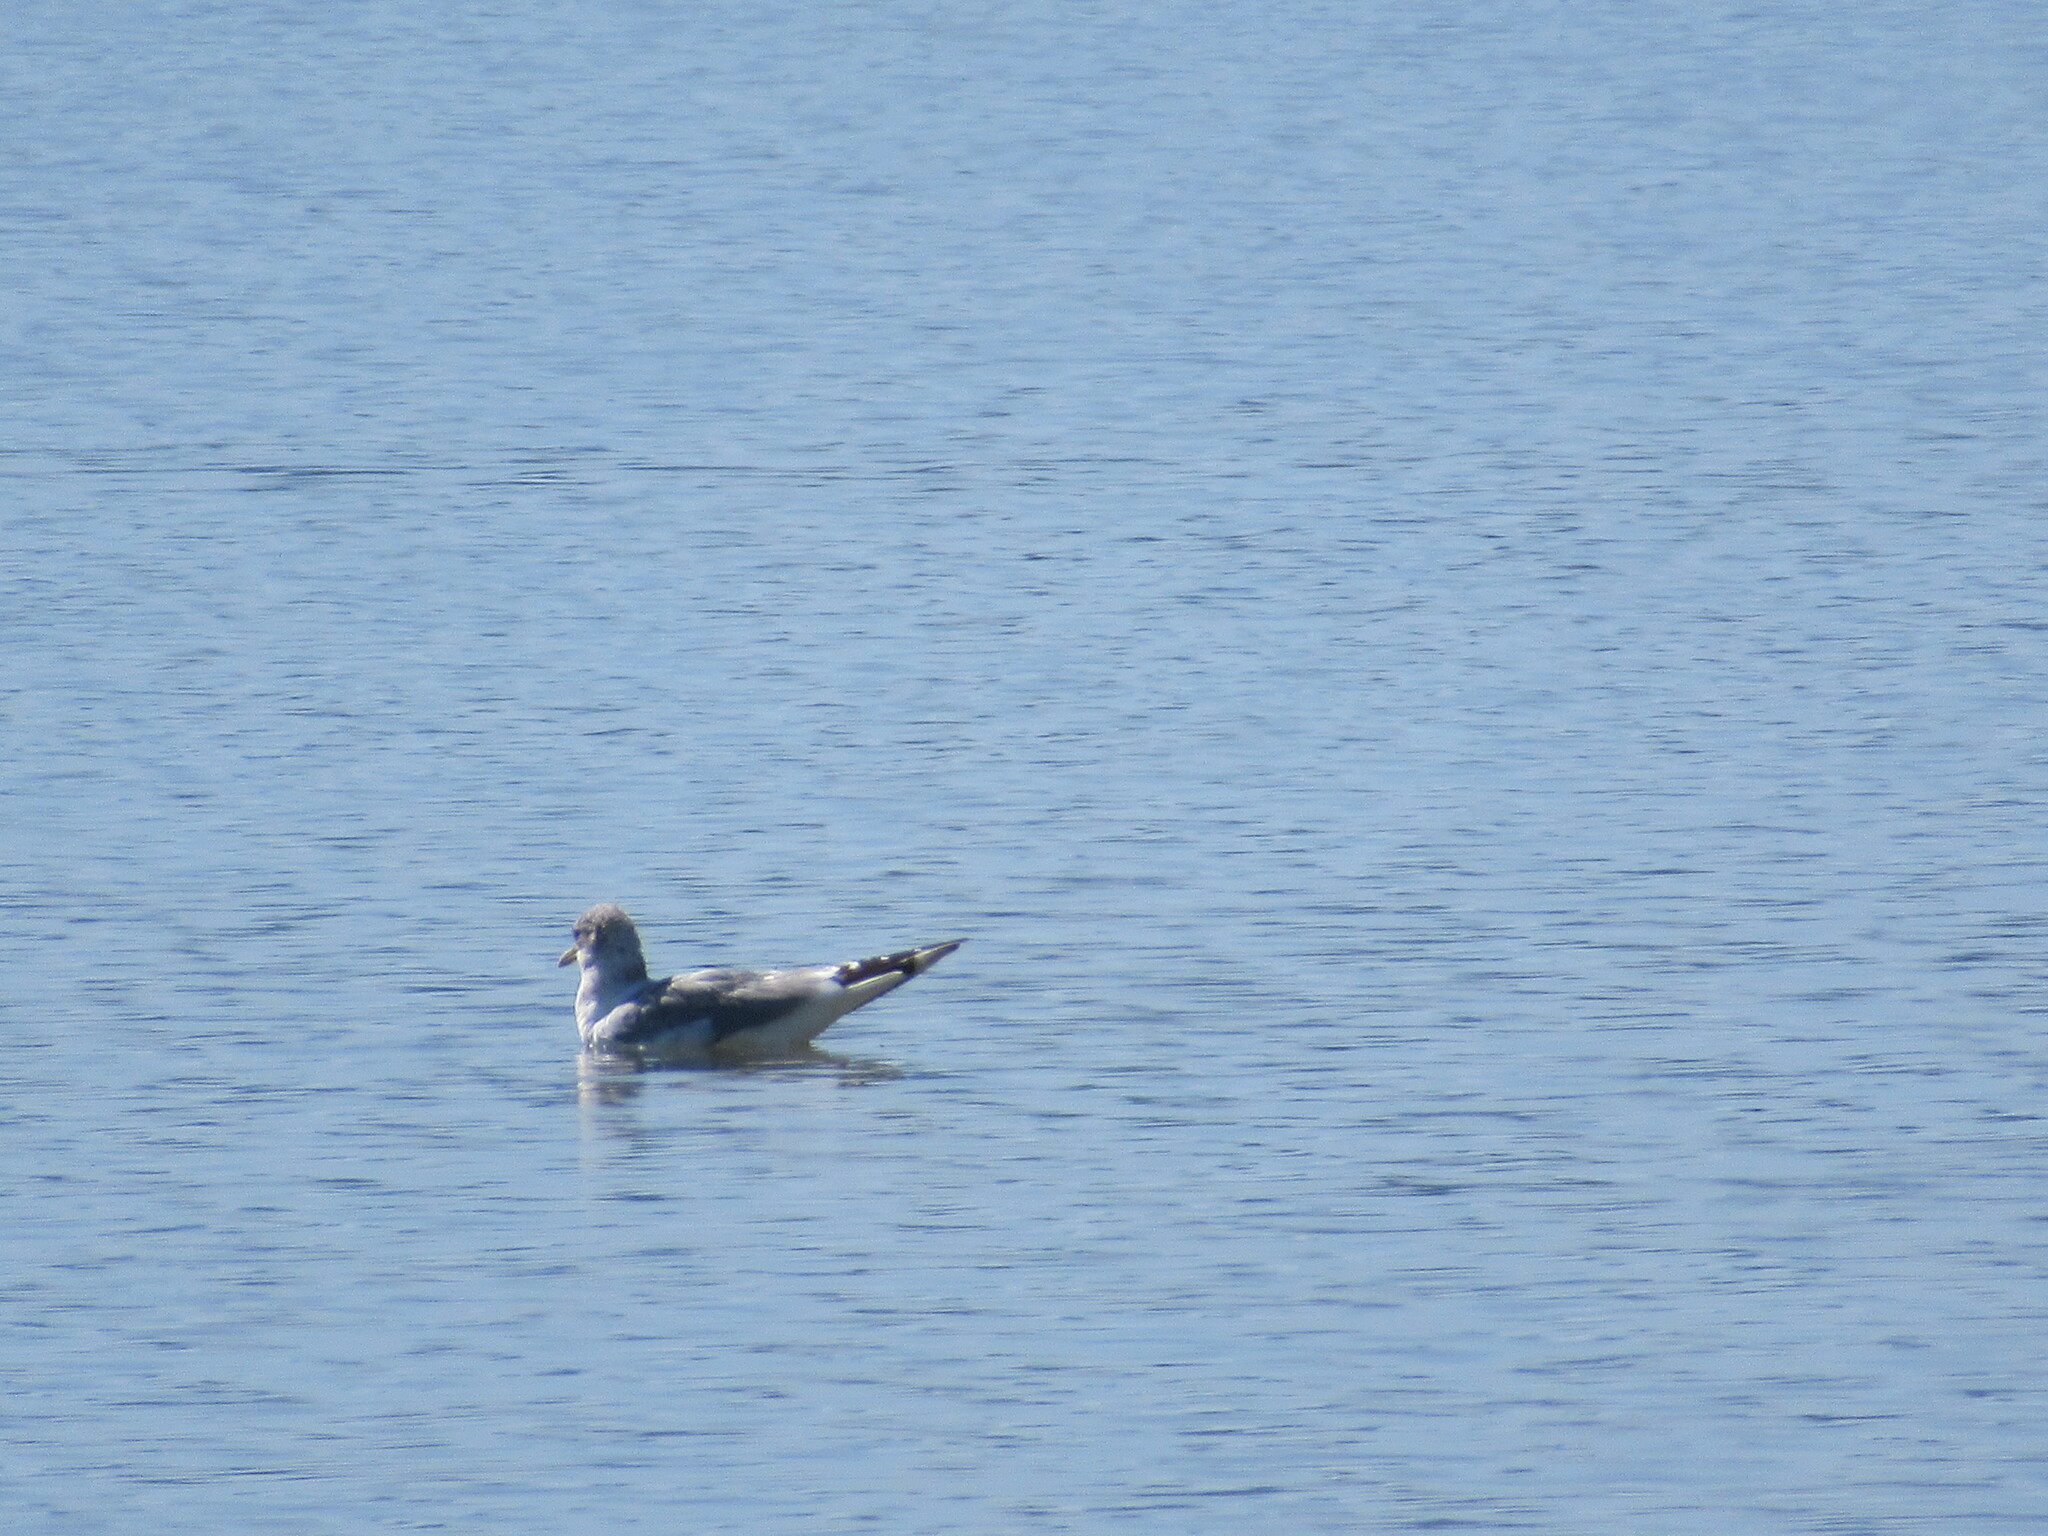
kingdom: Animalia
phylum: Chordata
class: Aves
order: Charadriiformes
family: Laridae
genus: Larus
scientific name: Larus brachyrhynchus
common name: Short-billed gull
